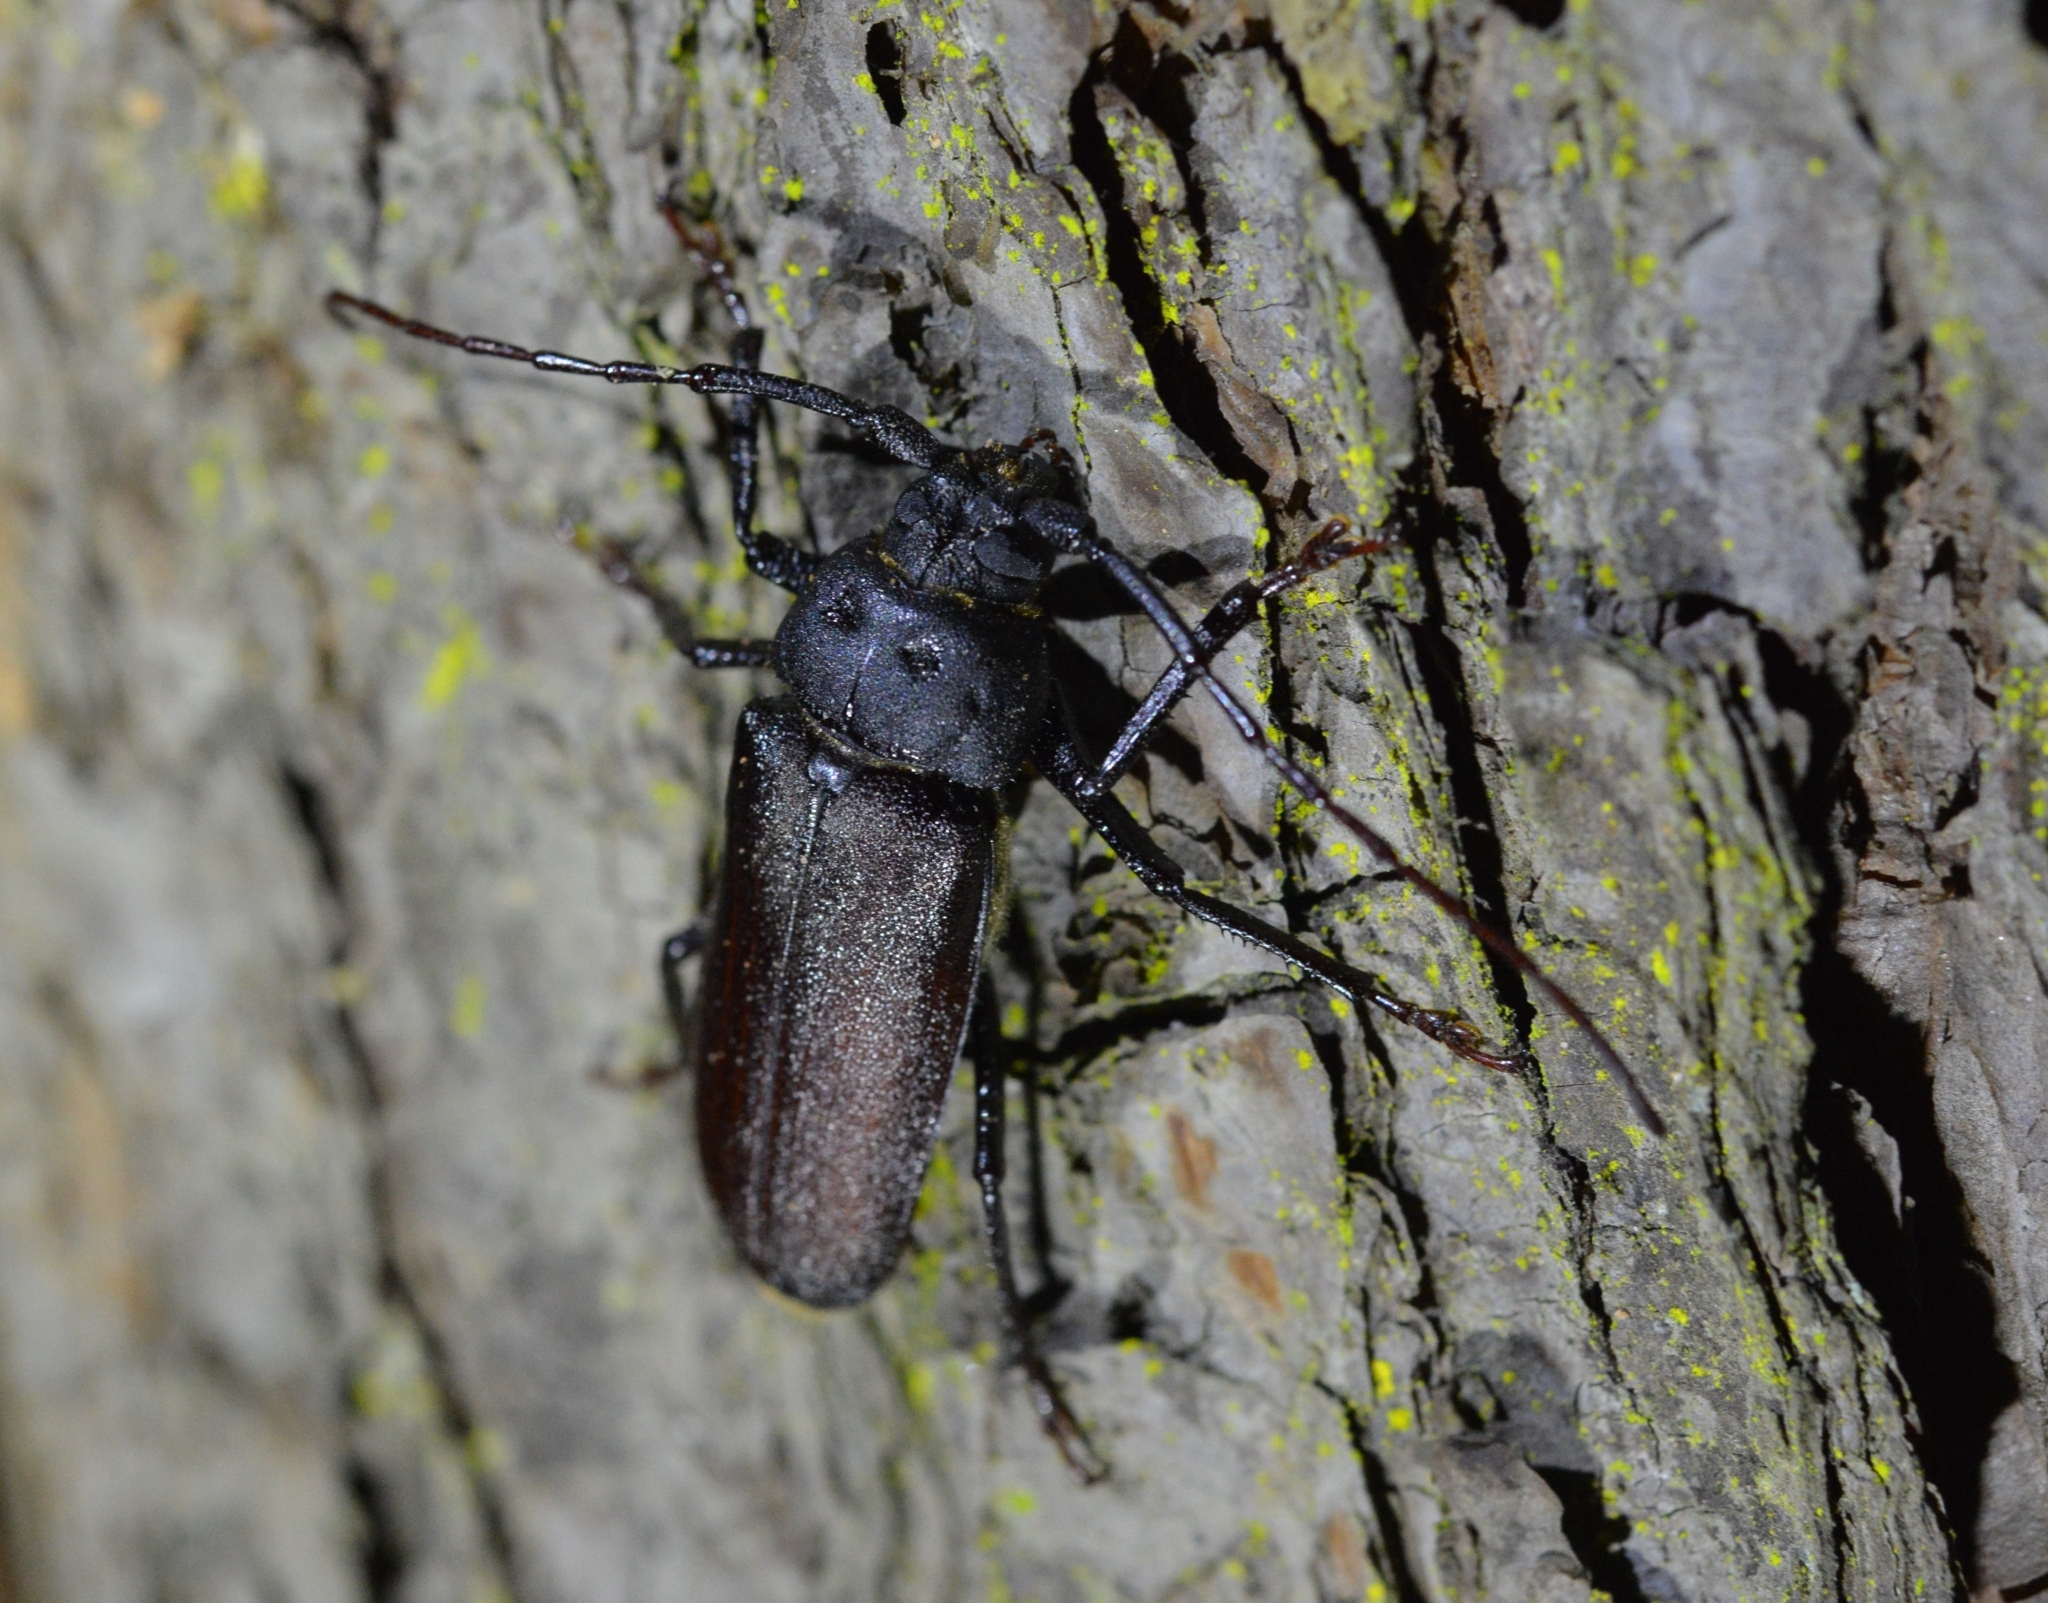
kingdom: Animalia
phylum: Arthropoda
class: Insecta
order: Coleoptera
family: Cerambycidae
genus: Prionotoma
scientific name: Prionotoma gestroi
